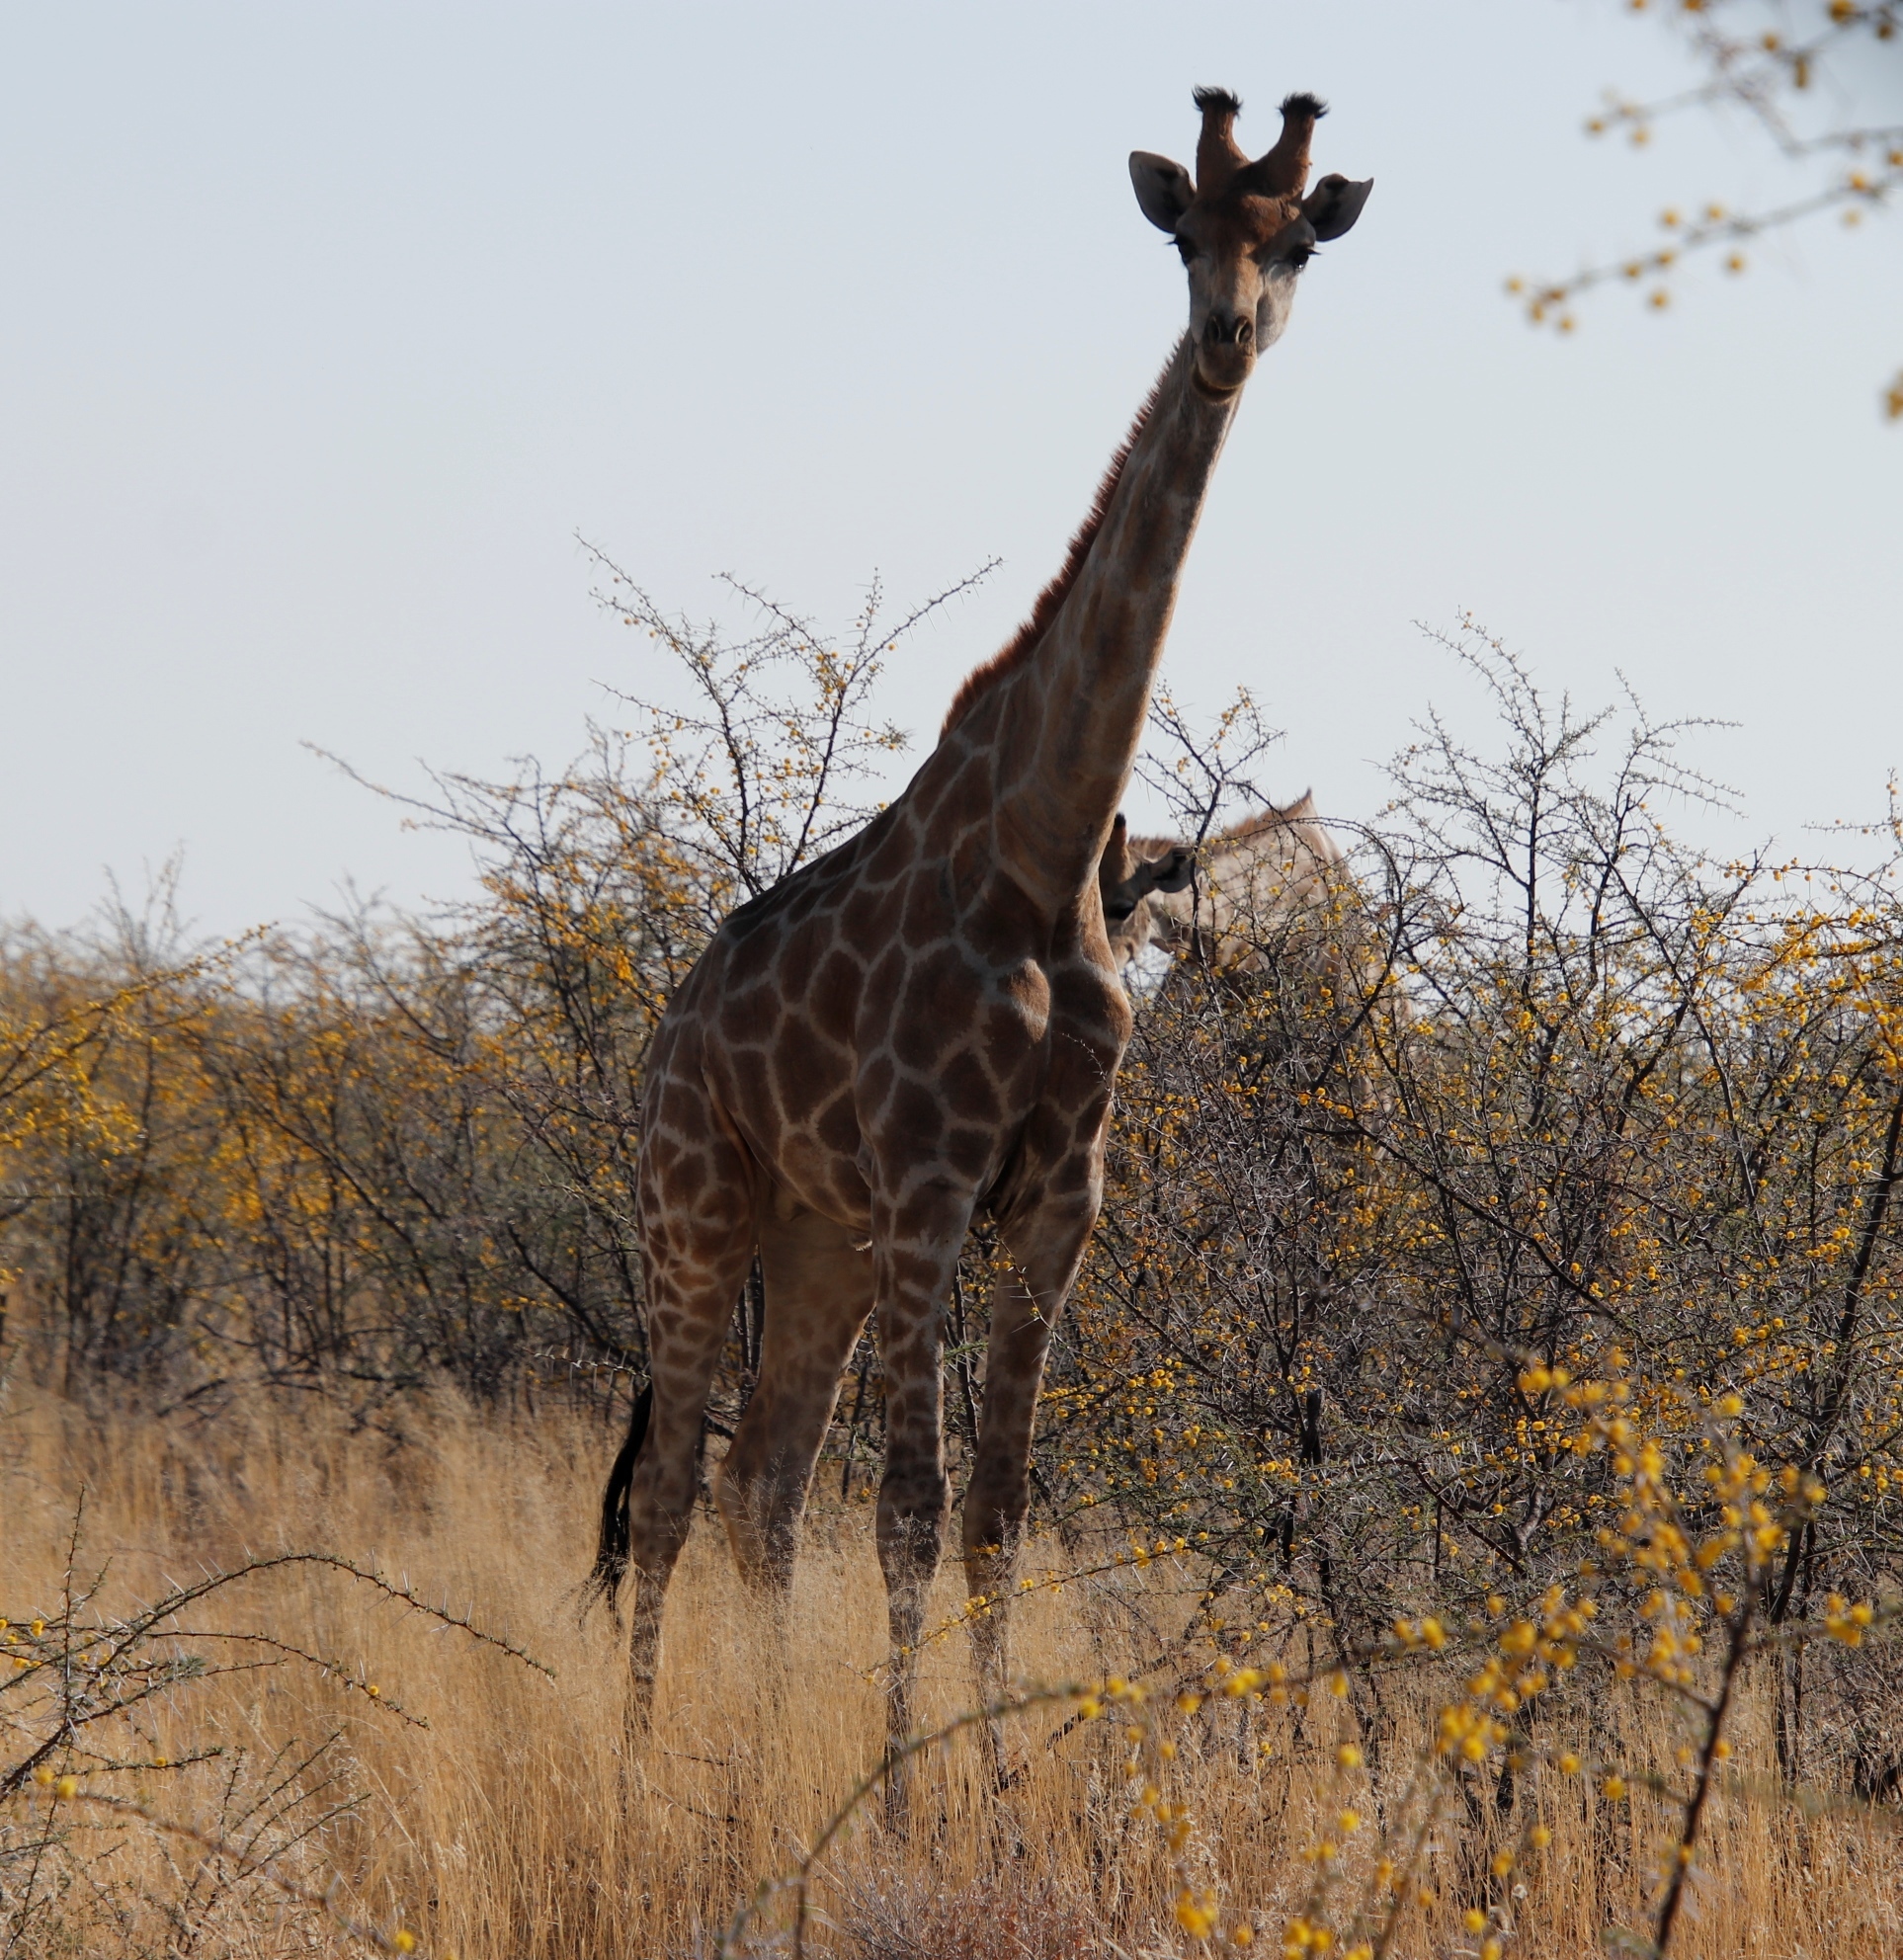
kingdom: Animalia
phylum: Chordata
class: Mammalia
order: Artiodactyla
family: Giraffidae
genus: Giraffa
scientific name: Giraffa giraffa
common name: Southern giraffe
